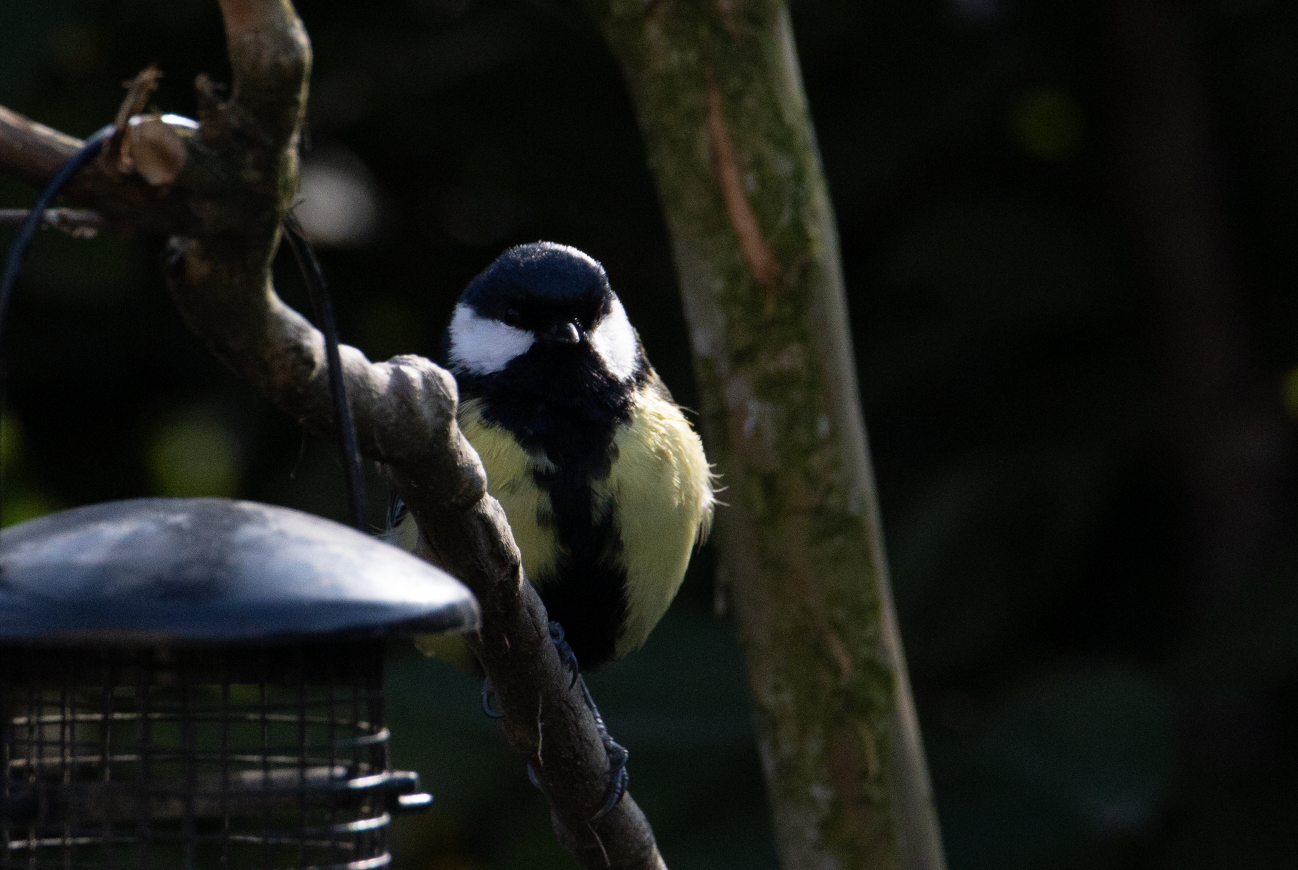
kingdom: Animalia
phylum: Chordata
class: Aves
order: Passeriformes
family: Paridae
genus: Parus
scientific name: Parus major
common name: Great tit
